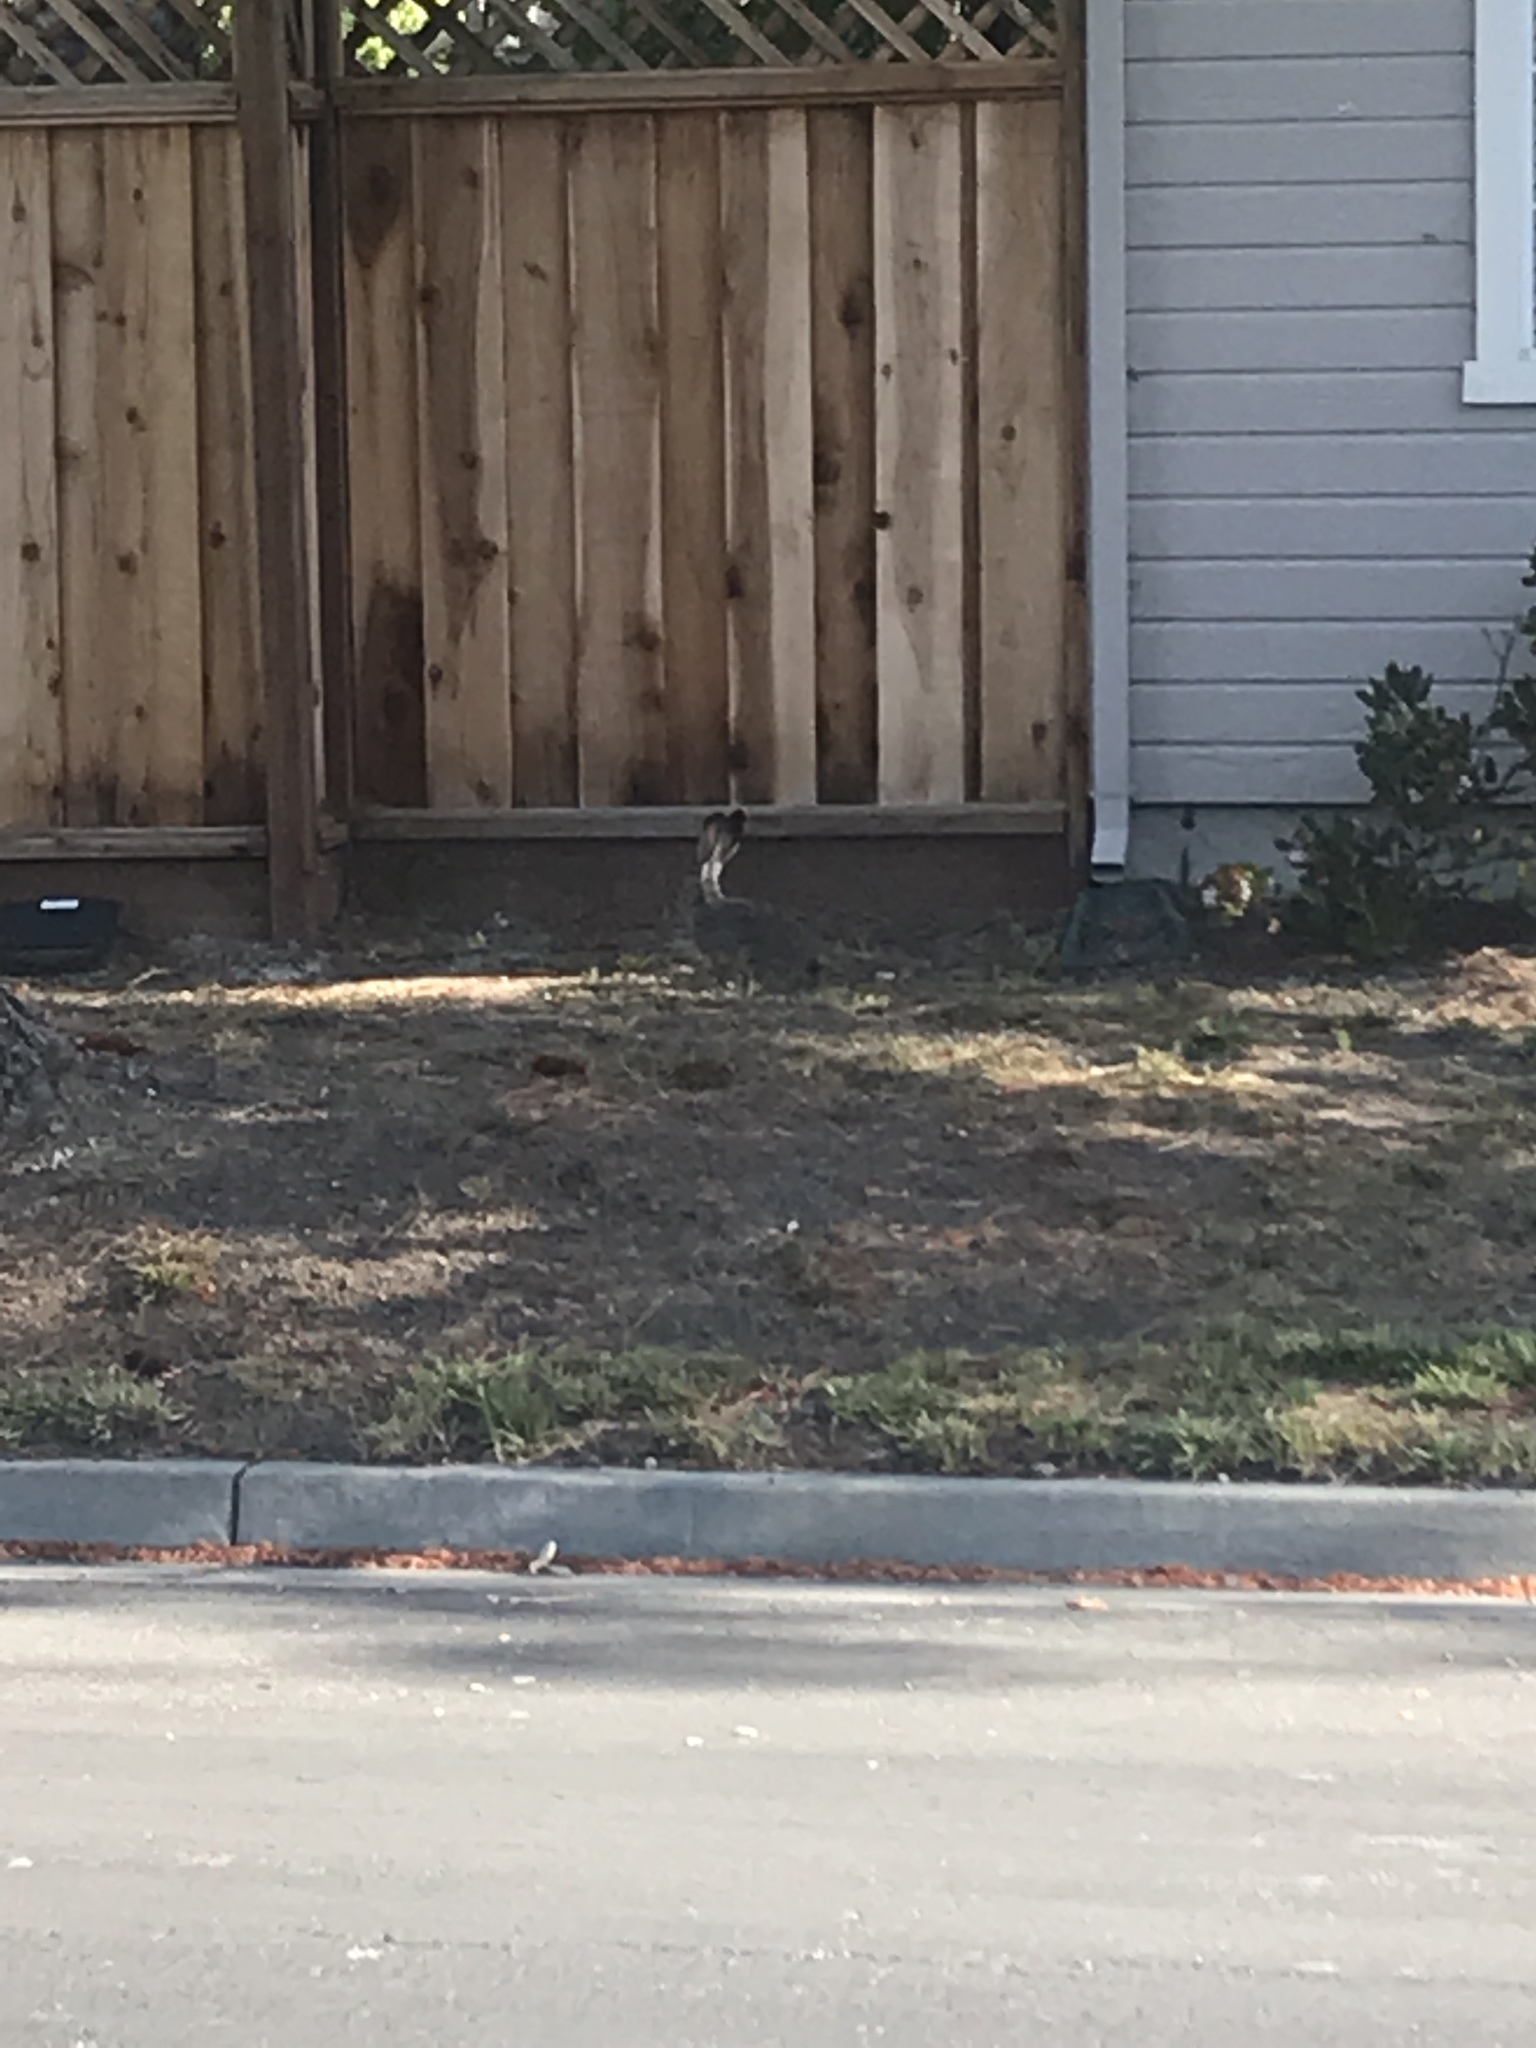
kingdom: Animalia
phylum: Chordata
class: Mammalia
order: Lagomorpha
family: Leporidae
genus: Lepus
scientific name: Lepus californicus
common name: Black-tailed jackrabbit
